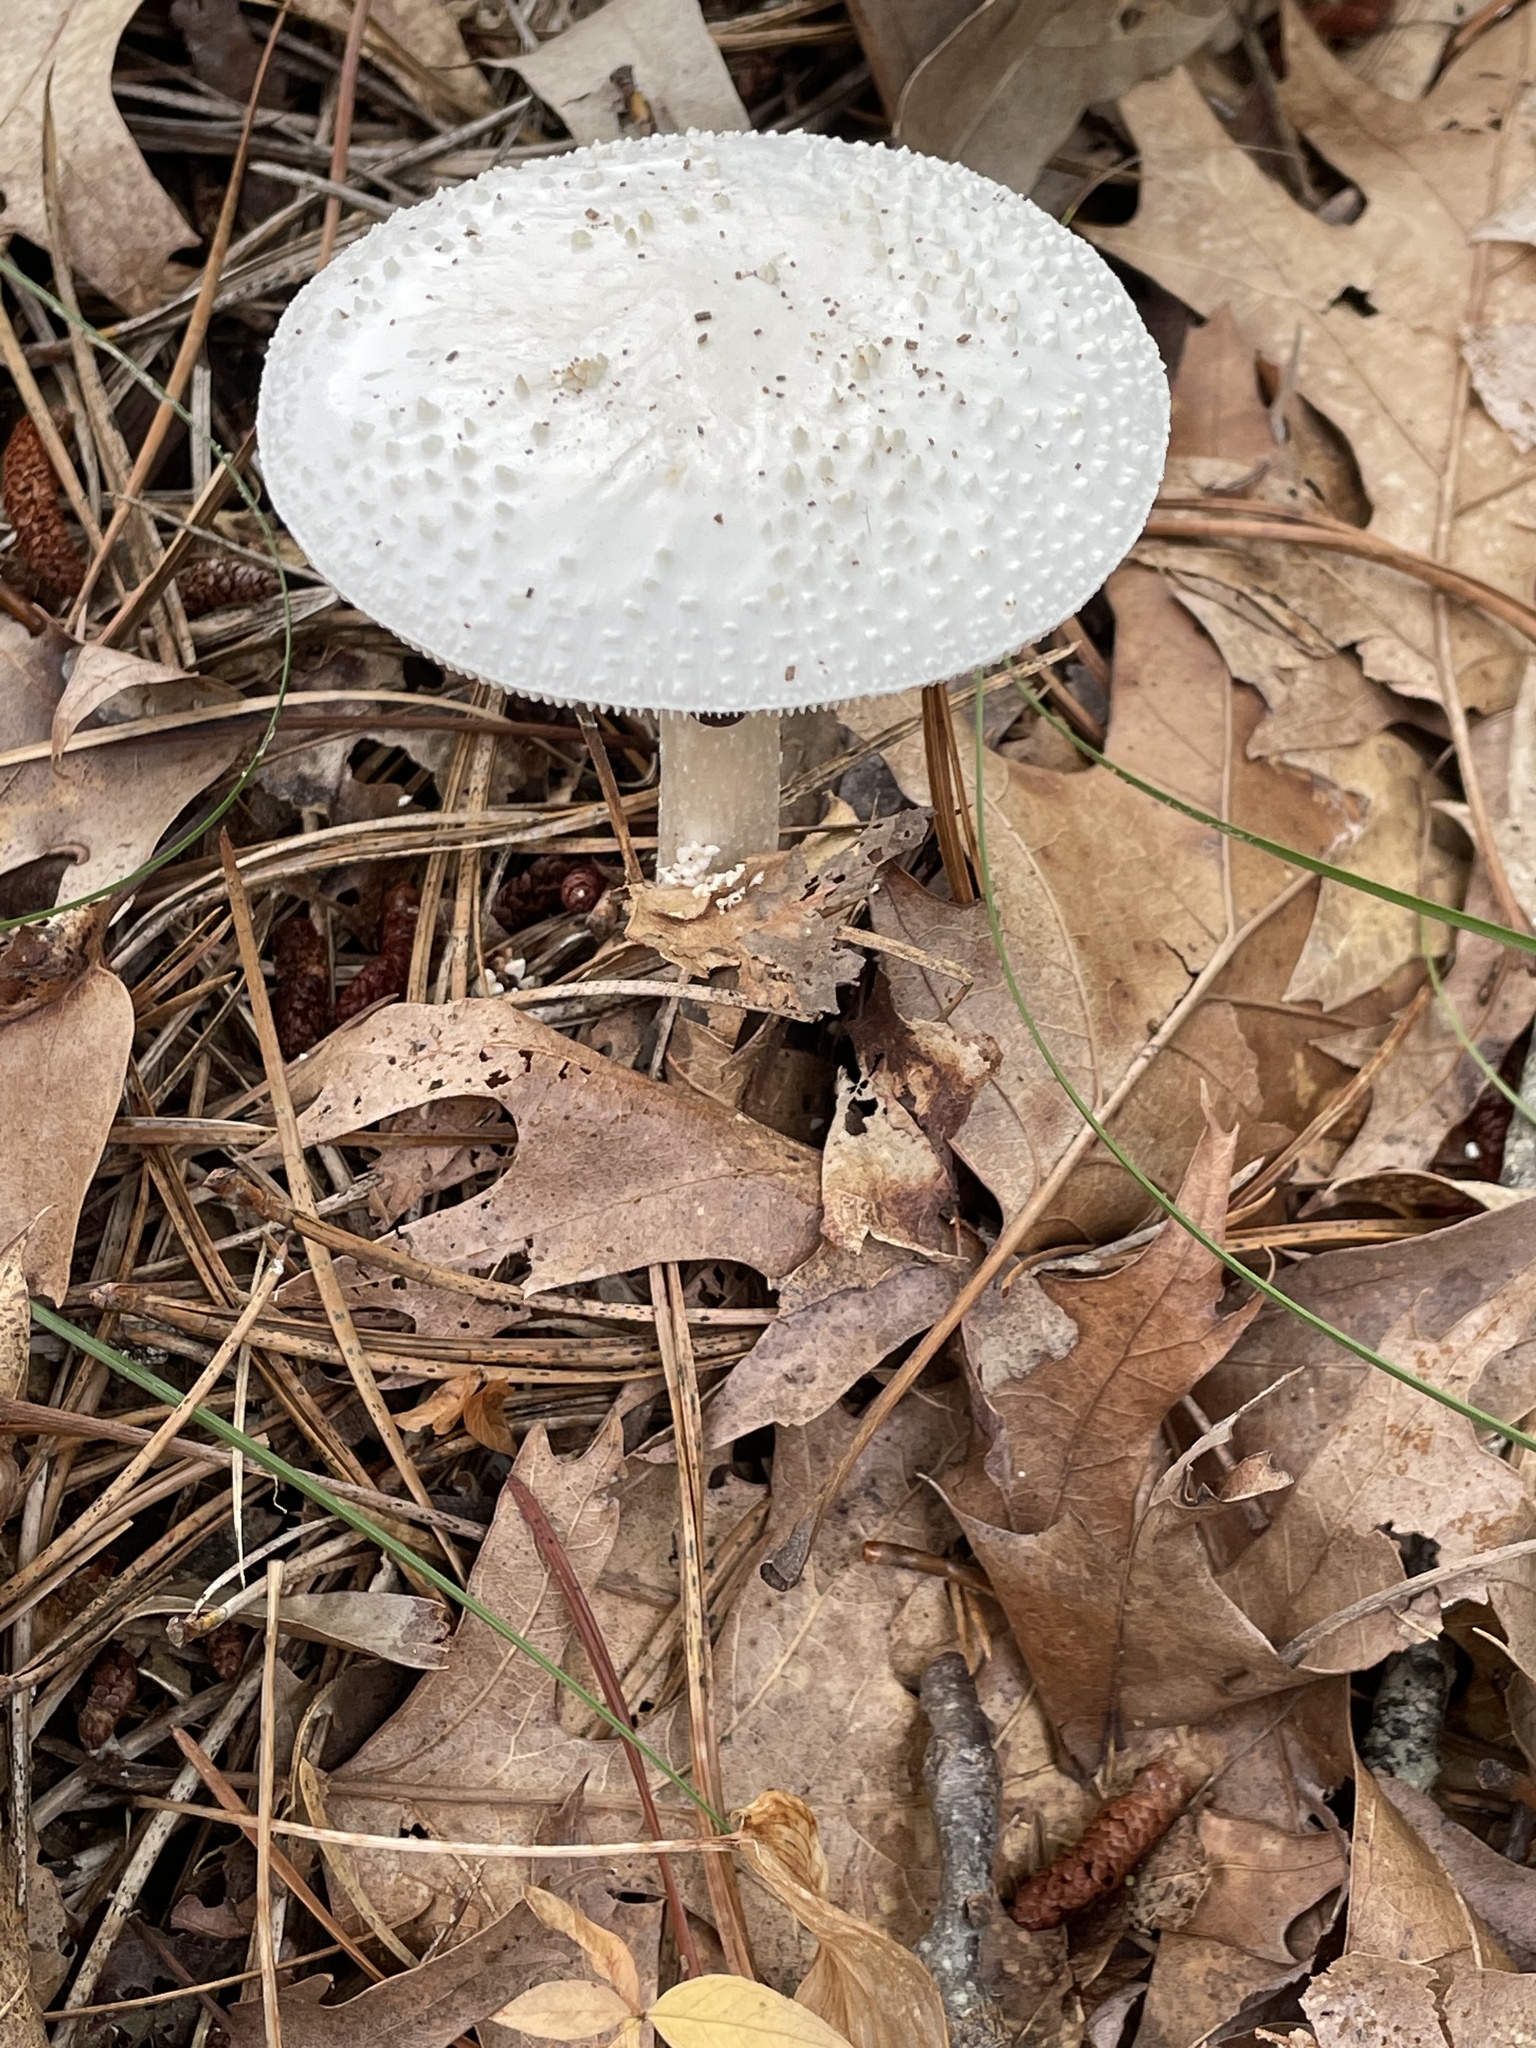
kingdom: Fungi
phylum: Basidiomycota
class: Agaricomycetes
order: Agaricales
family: Amanitaceae
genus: Amanita
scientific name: Amanita abrupta
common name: American abrupt-bulbed lepidella
